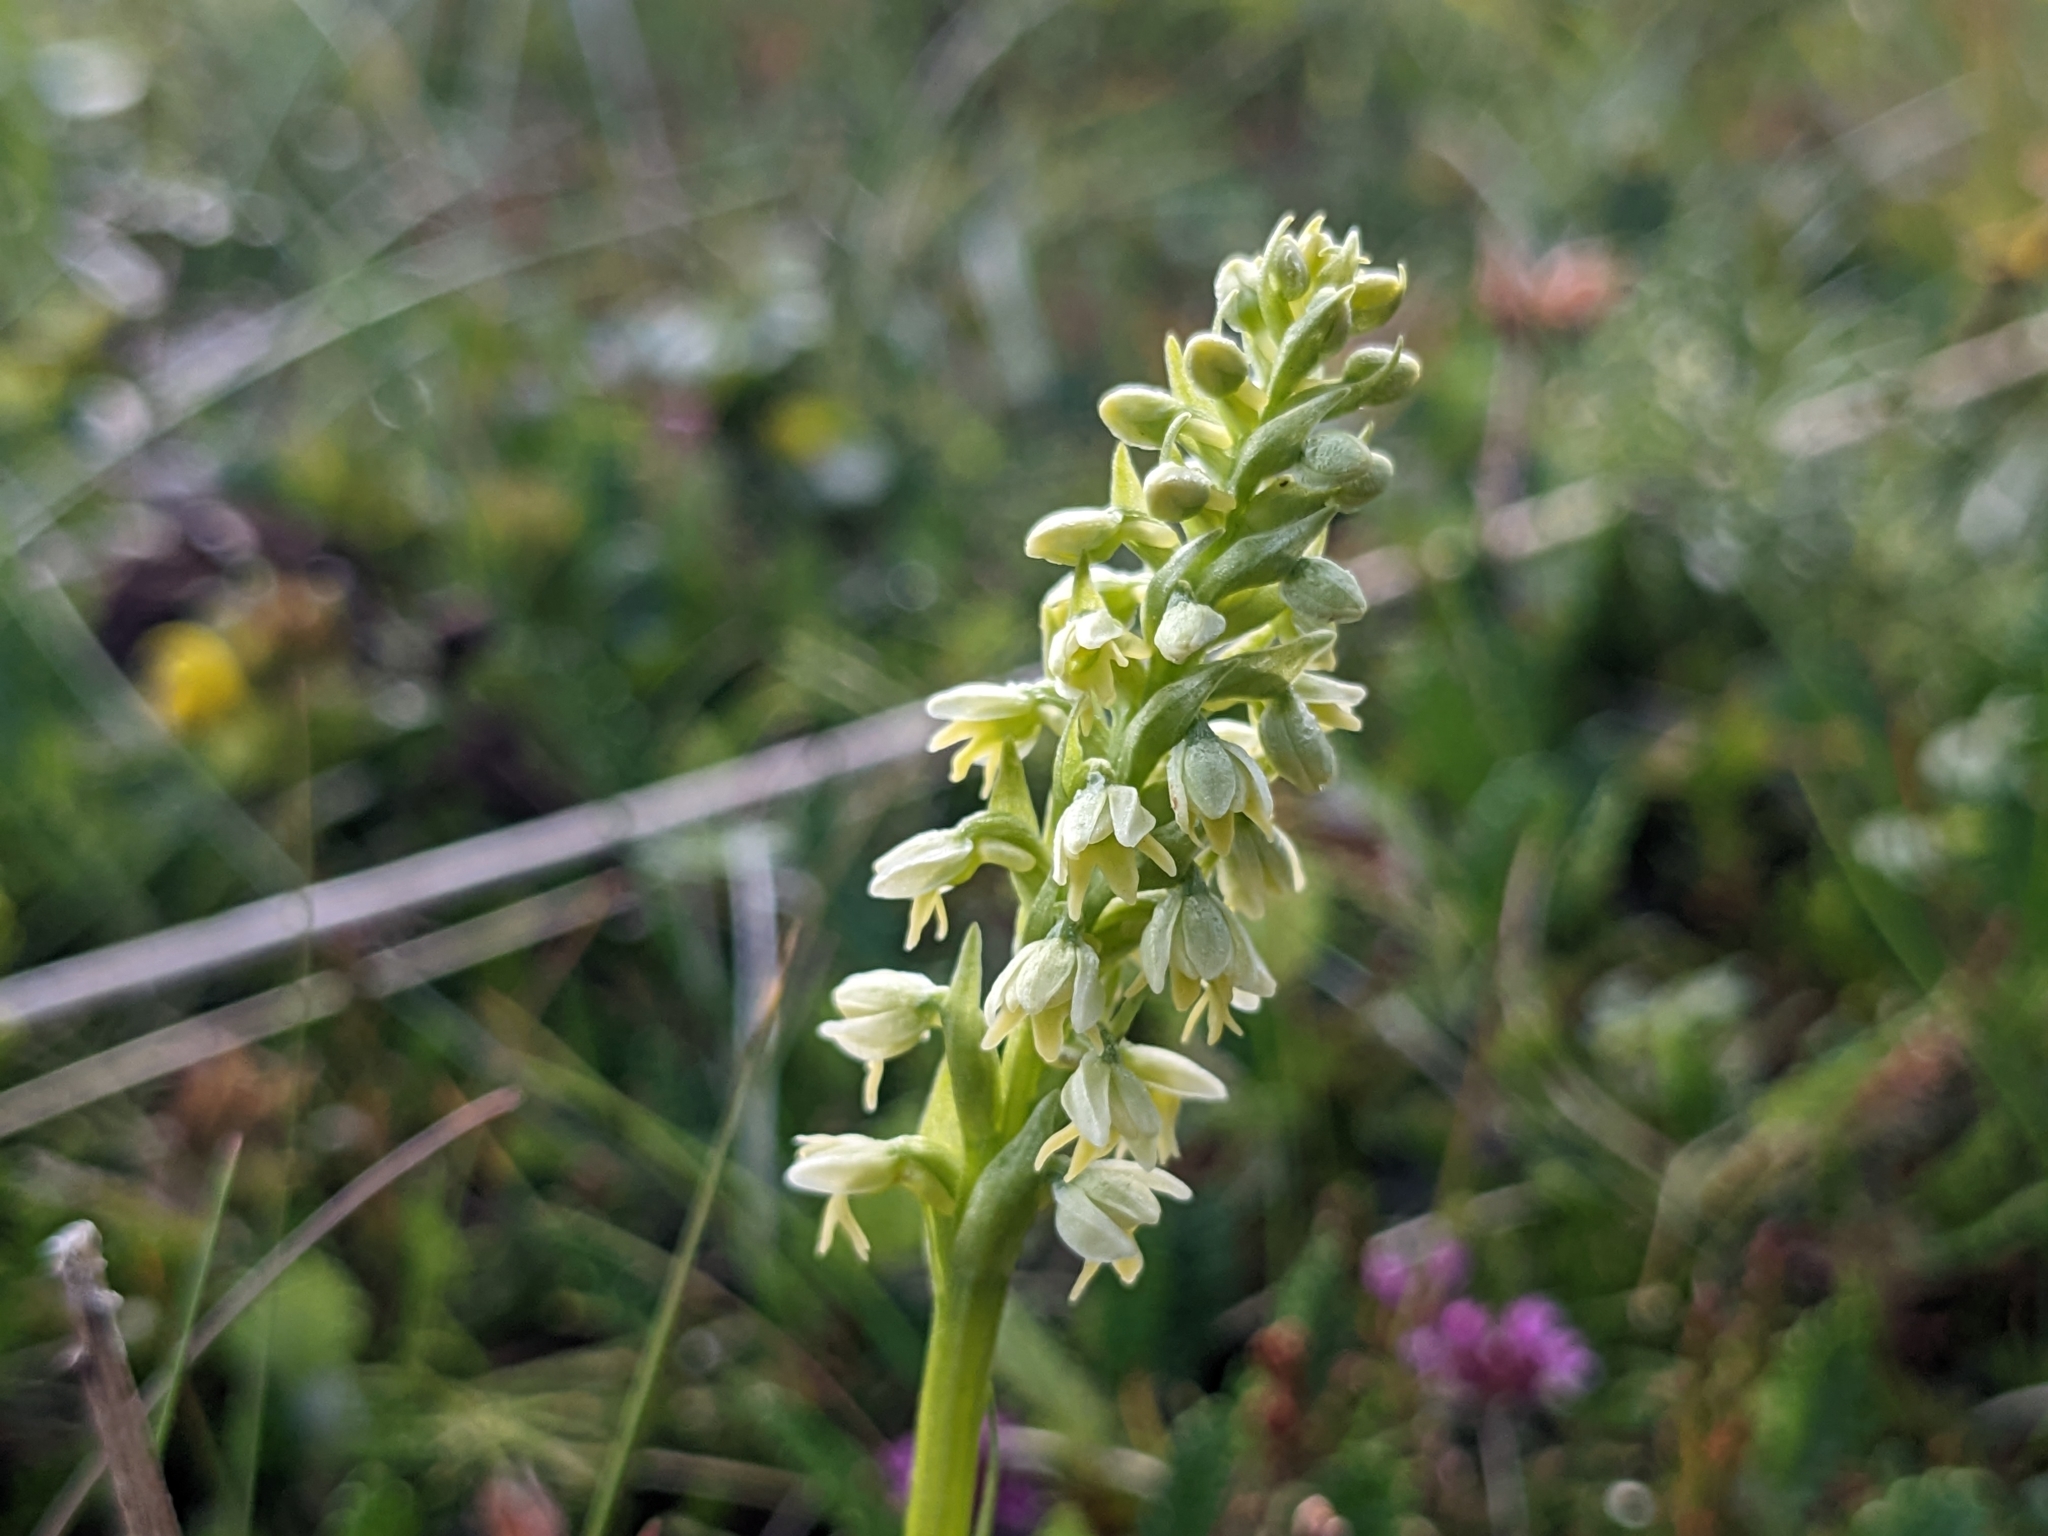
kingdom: Plantae
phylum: Tracheophyta
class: Liliopsida
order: Asparagales
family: Orchidaceae
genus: Pseudorchis
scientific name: Pseudorchis albida
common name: Small-white orchid
